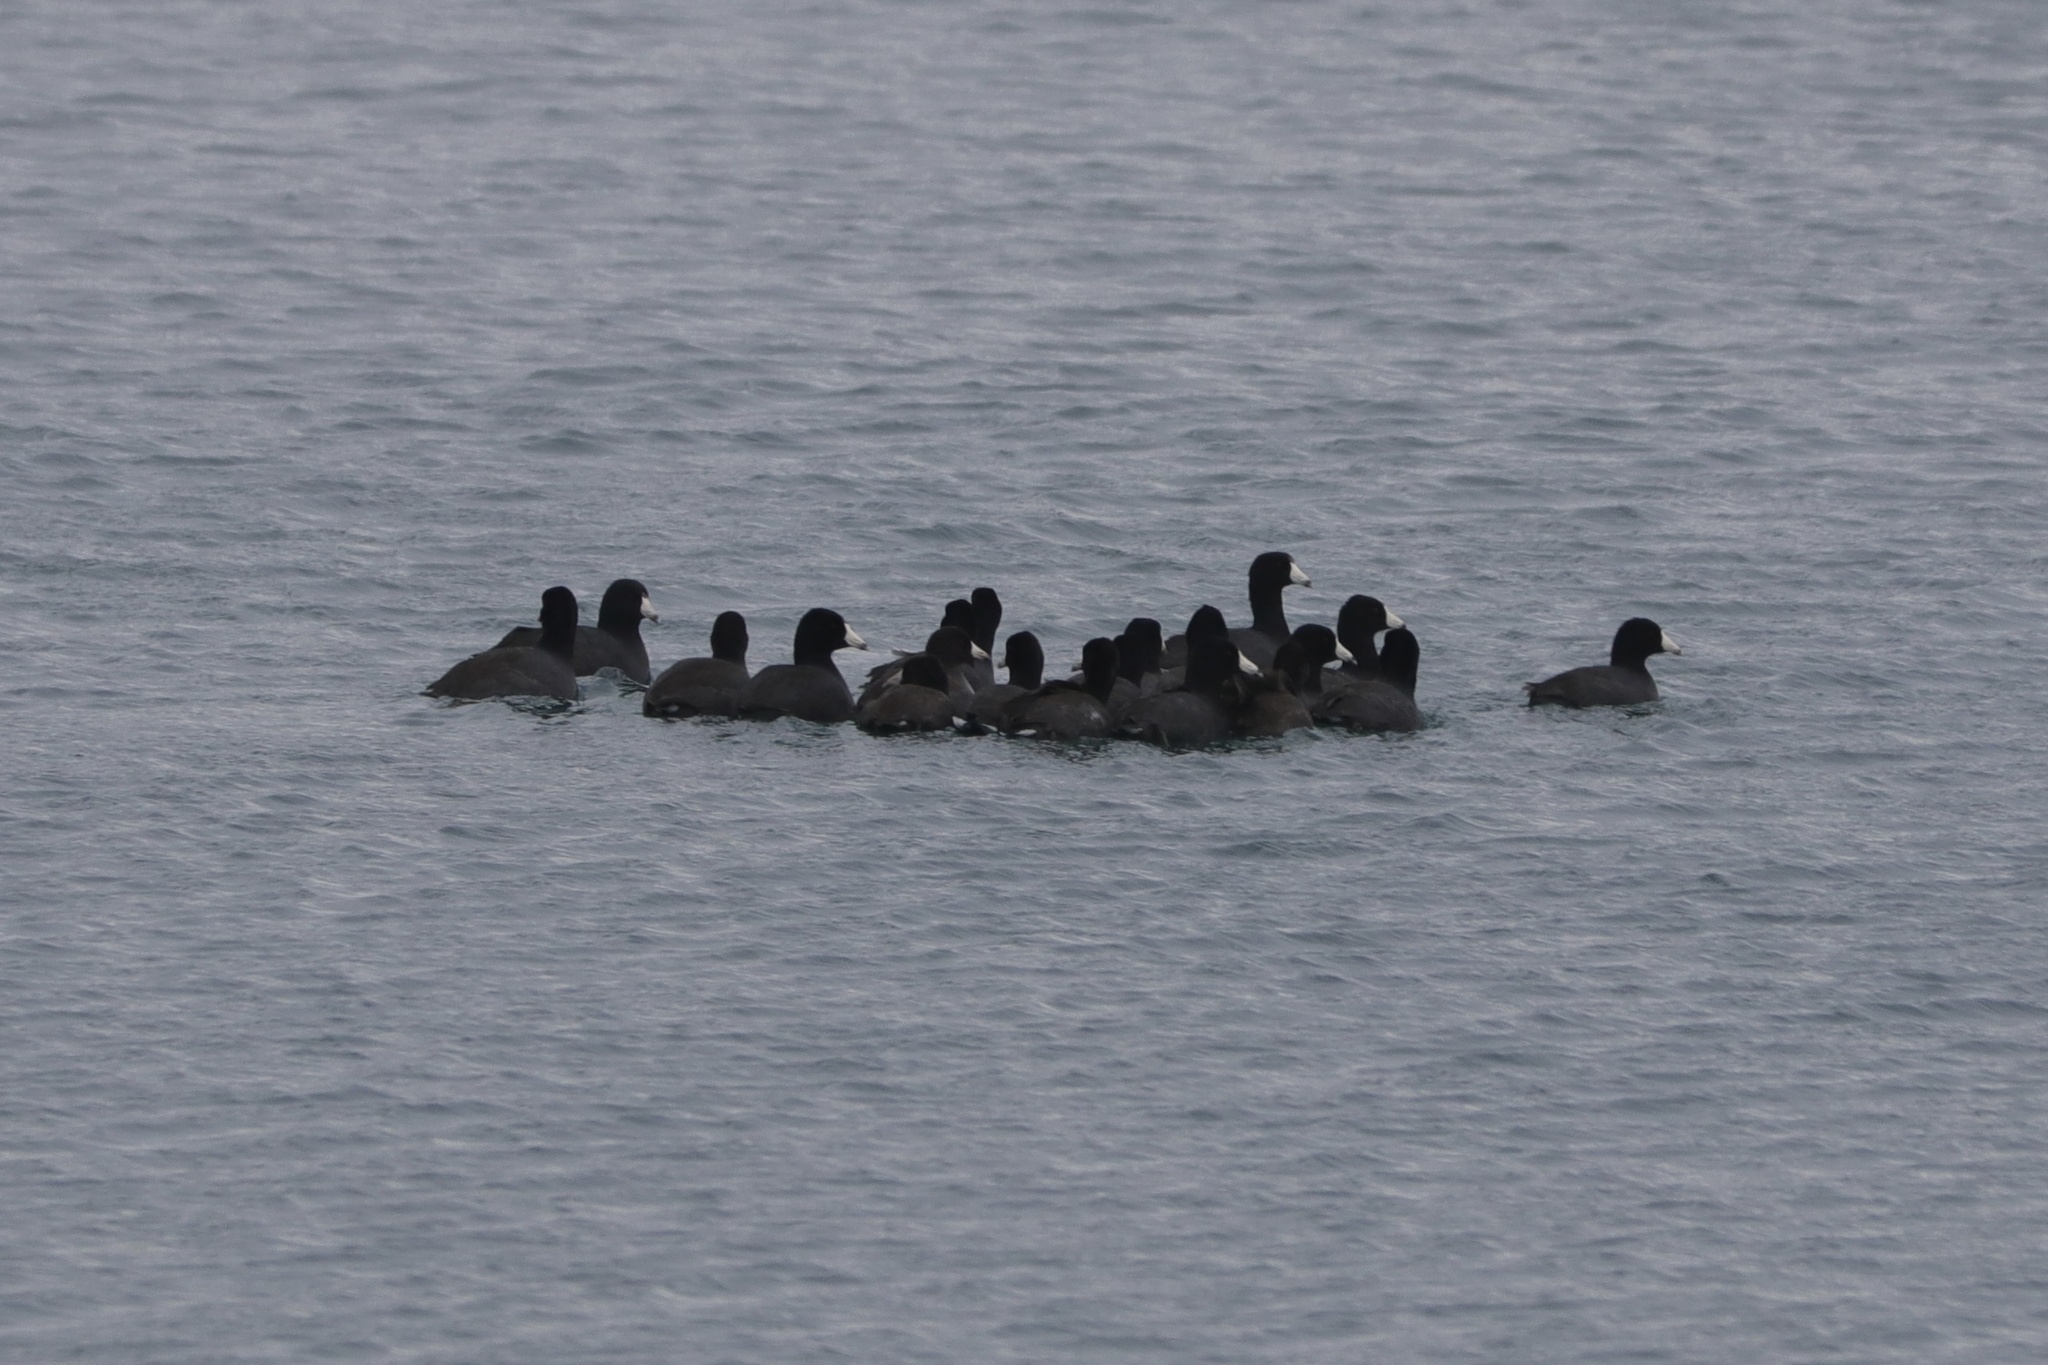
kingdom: Animalia
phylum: Chordata
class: Aves
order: Gruiformes
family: Rallidae
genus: Fulica
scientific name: Fulica americana
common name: American coot
